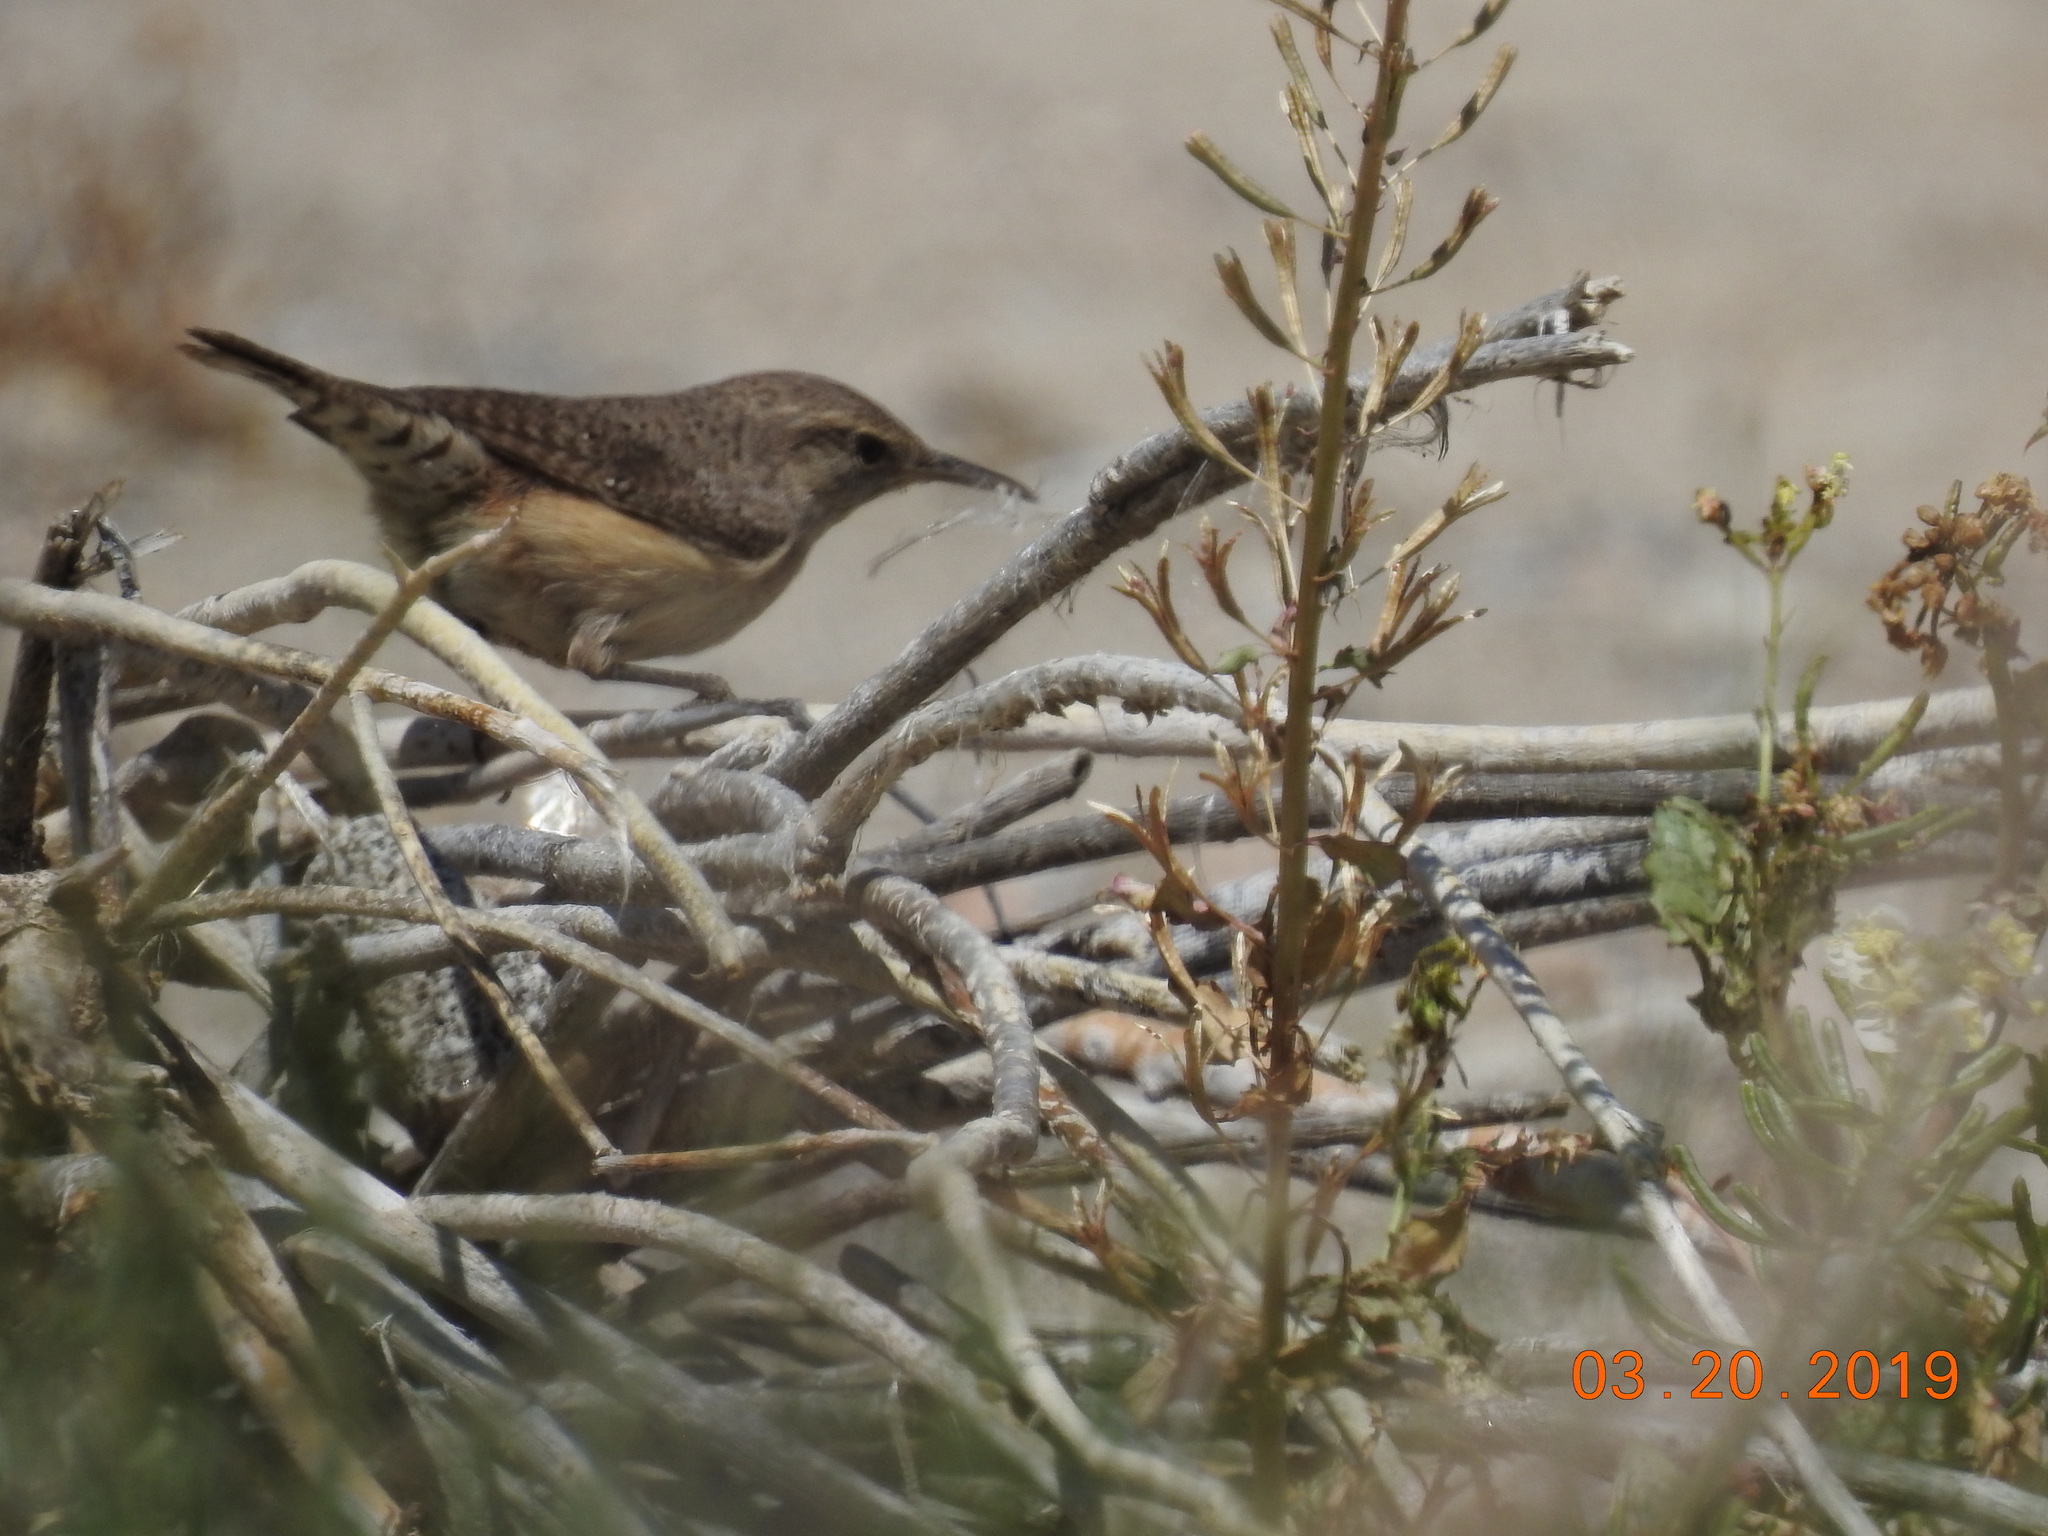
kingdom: Animalia
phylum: Chordata
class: Aves
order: Passeriformes
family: Troglodytidae
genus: Salpinctes
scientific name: Salpinctes obsoletus
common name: Rock wren
